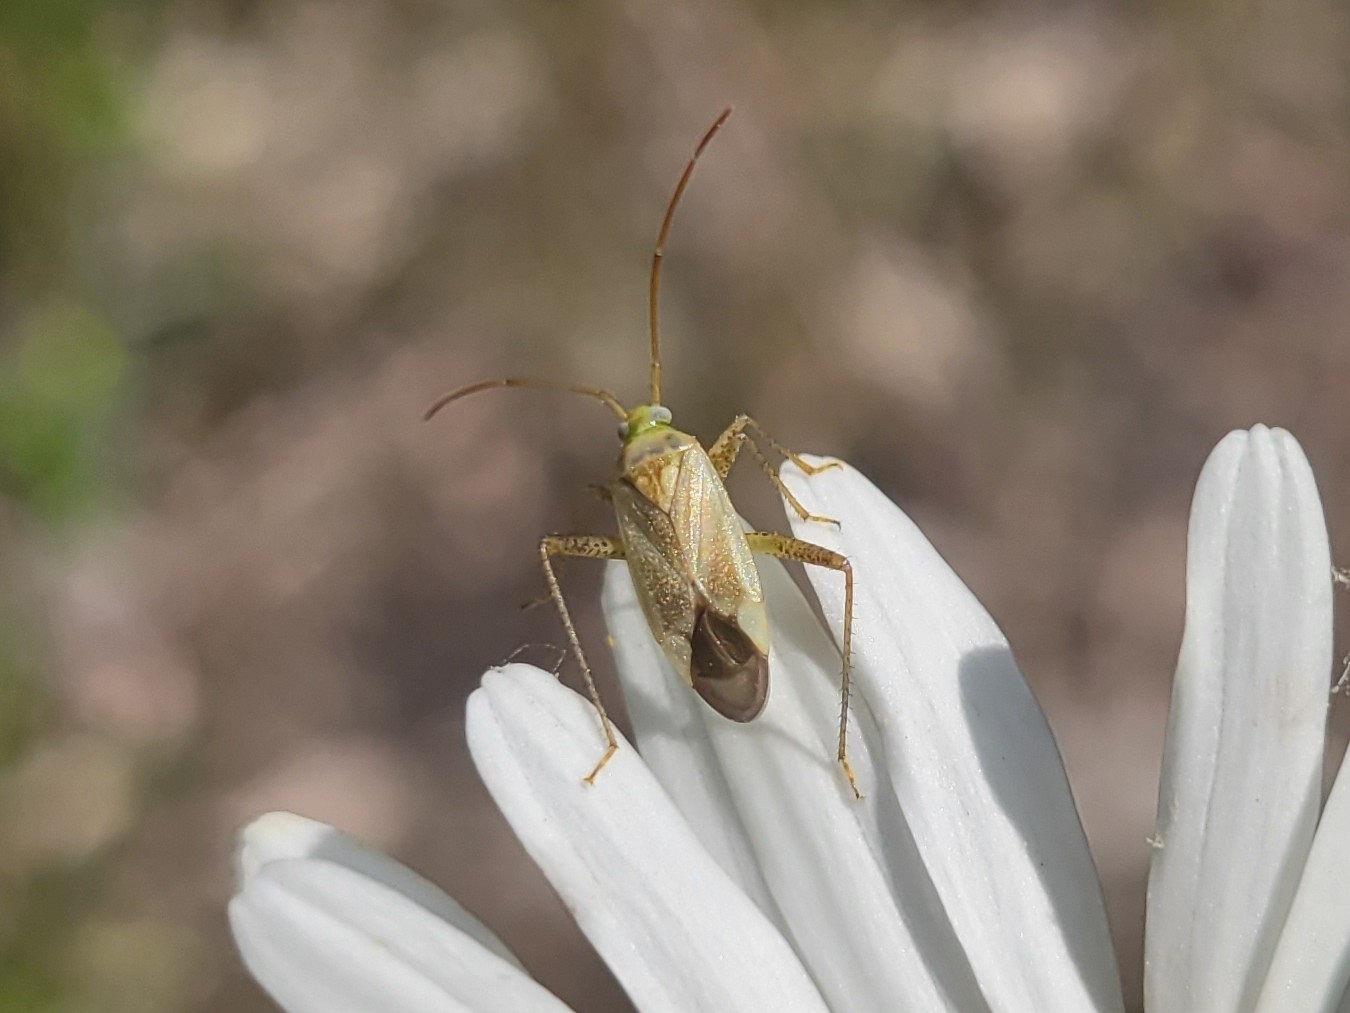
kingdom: Animalia
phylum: Arthropoda
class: Insecta
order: Hemiptera
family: Miridae
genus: Adelphocoris
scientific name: Adelphocoris lineolatus
